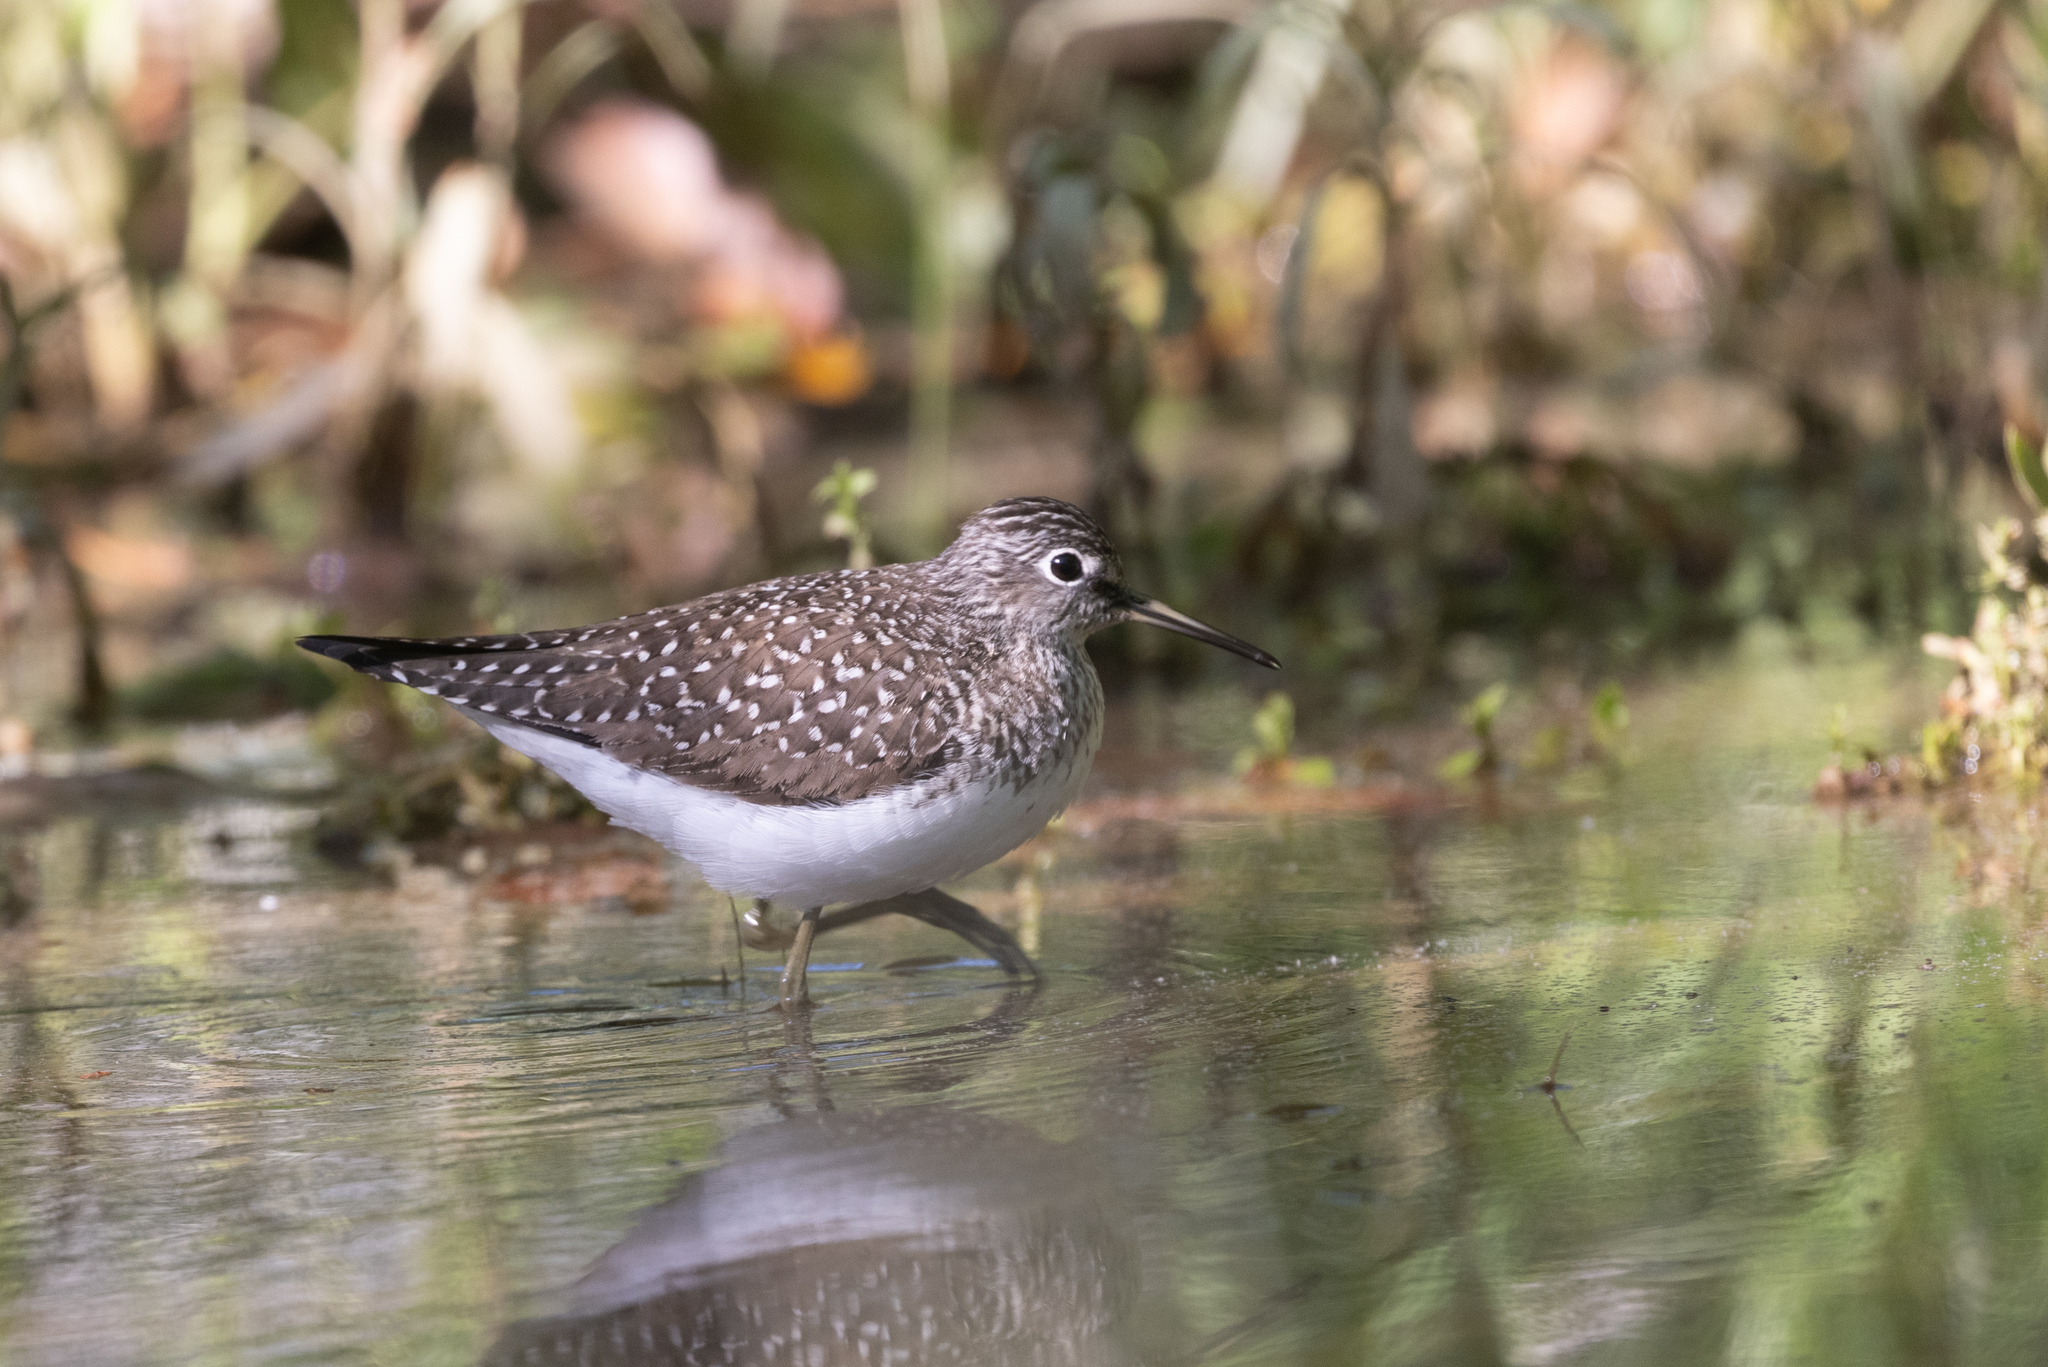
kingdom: Animalia
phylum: Chordata
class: Aves
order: Charadriiformes
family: Scolopacidae
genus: Tringa
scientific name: Tringa solitaria
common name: Solitary sandpiper
